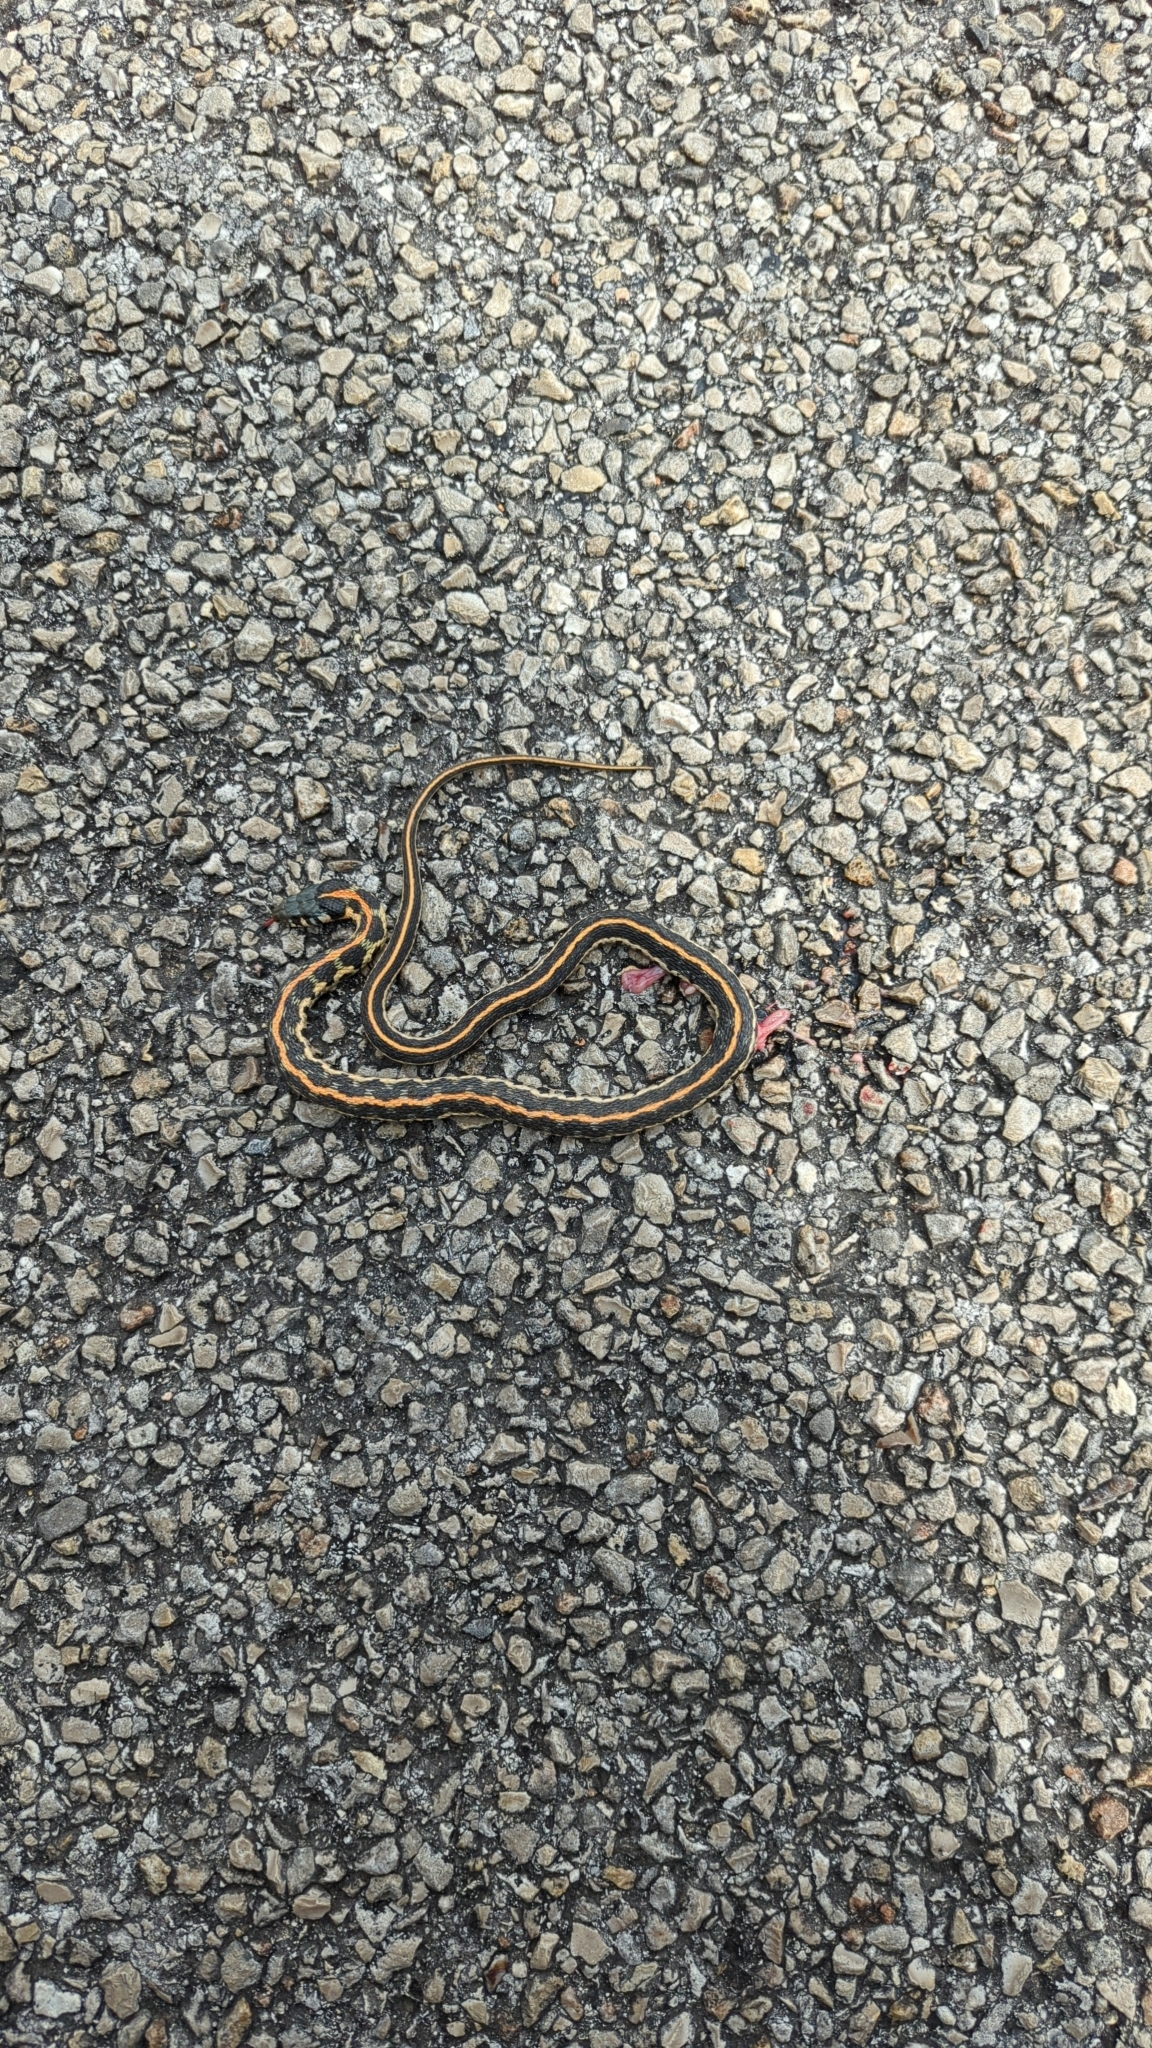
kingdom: Animalia
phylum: Chordata
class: Squamata
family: Colubridae
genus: Thamnophis
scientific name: Thamnophis cyrtopsis
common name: Black-necked gartersnake
